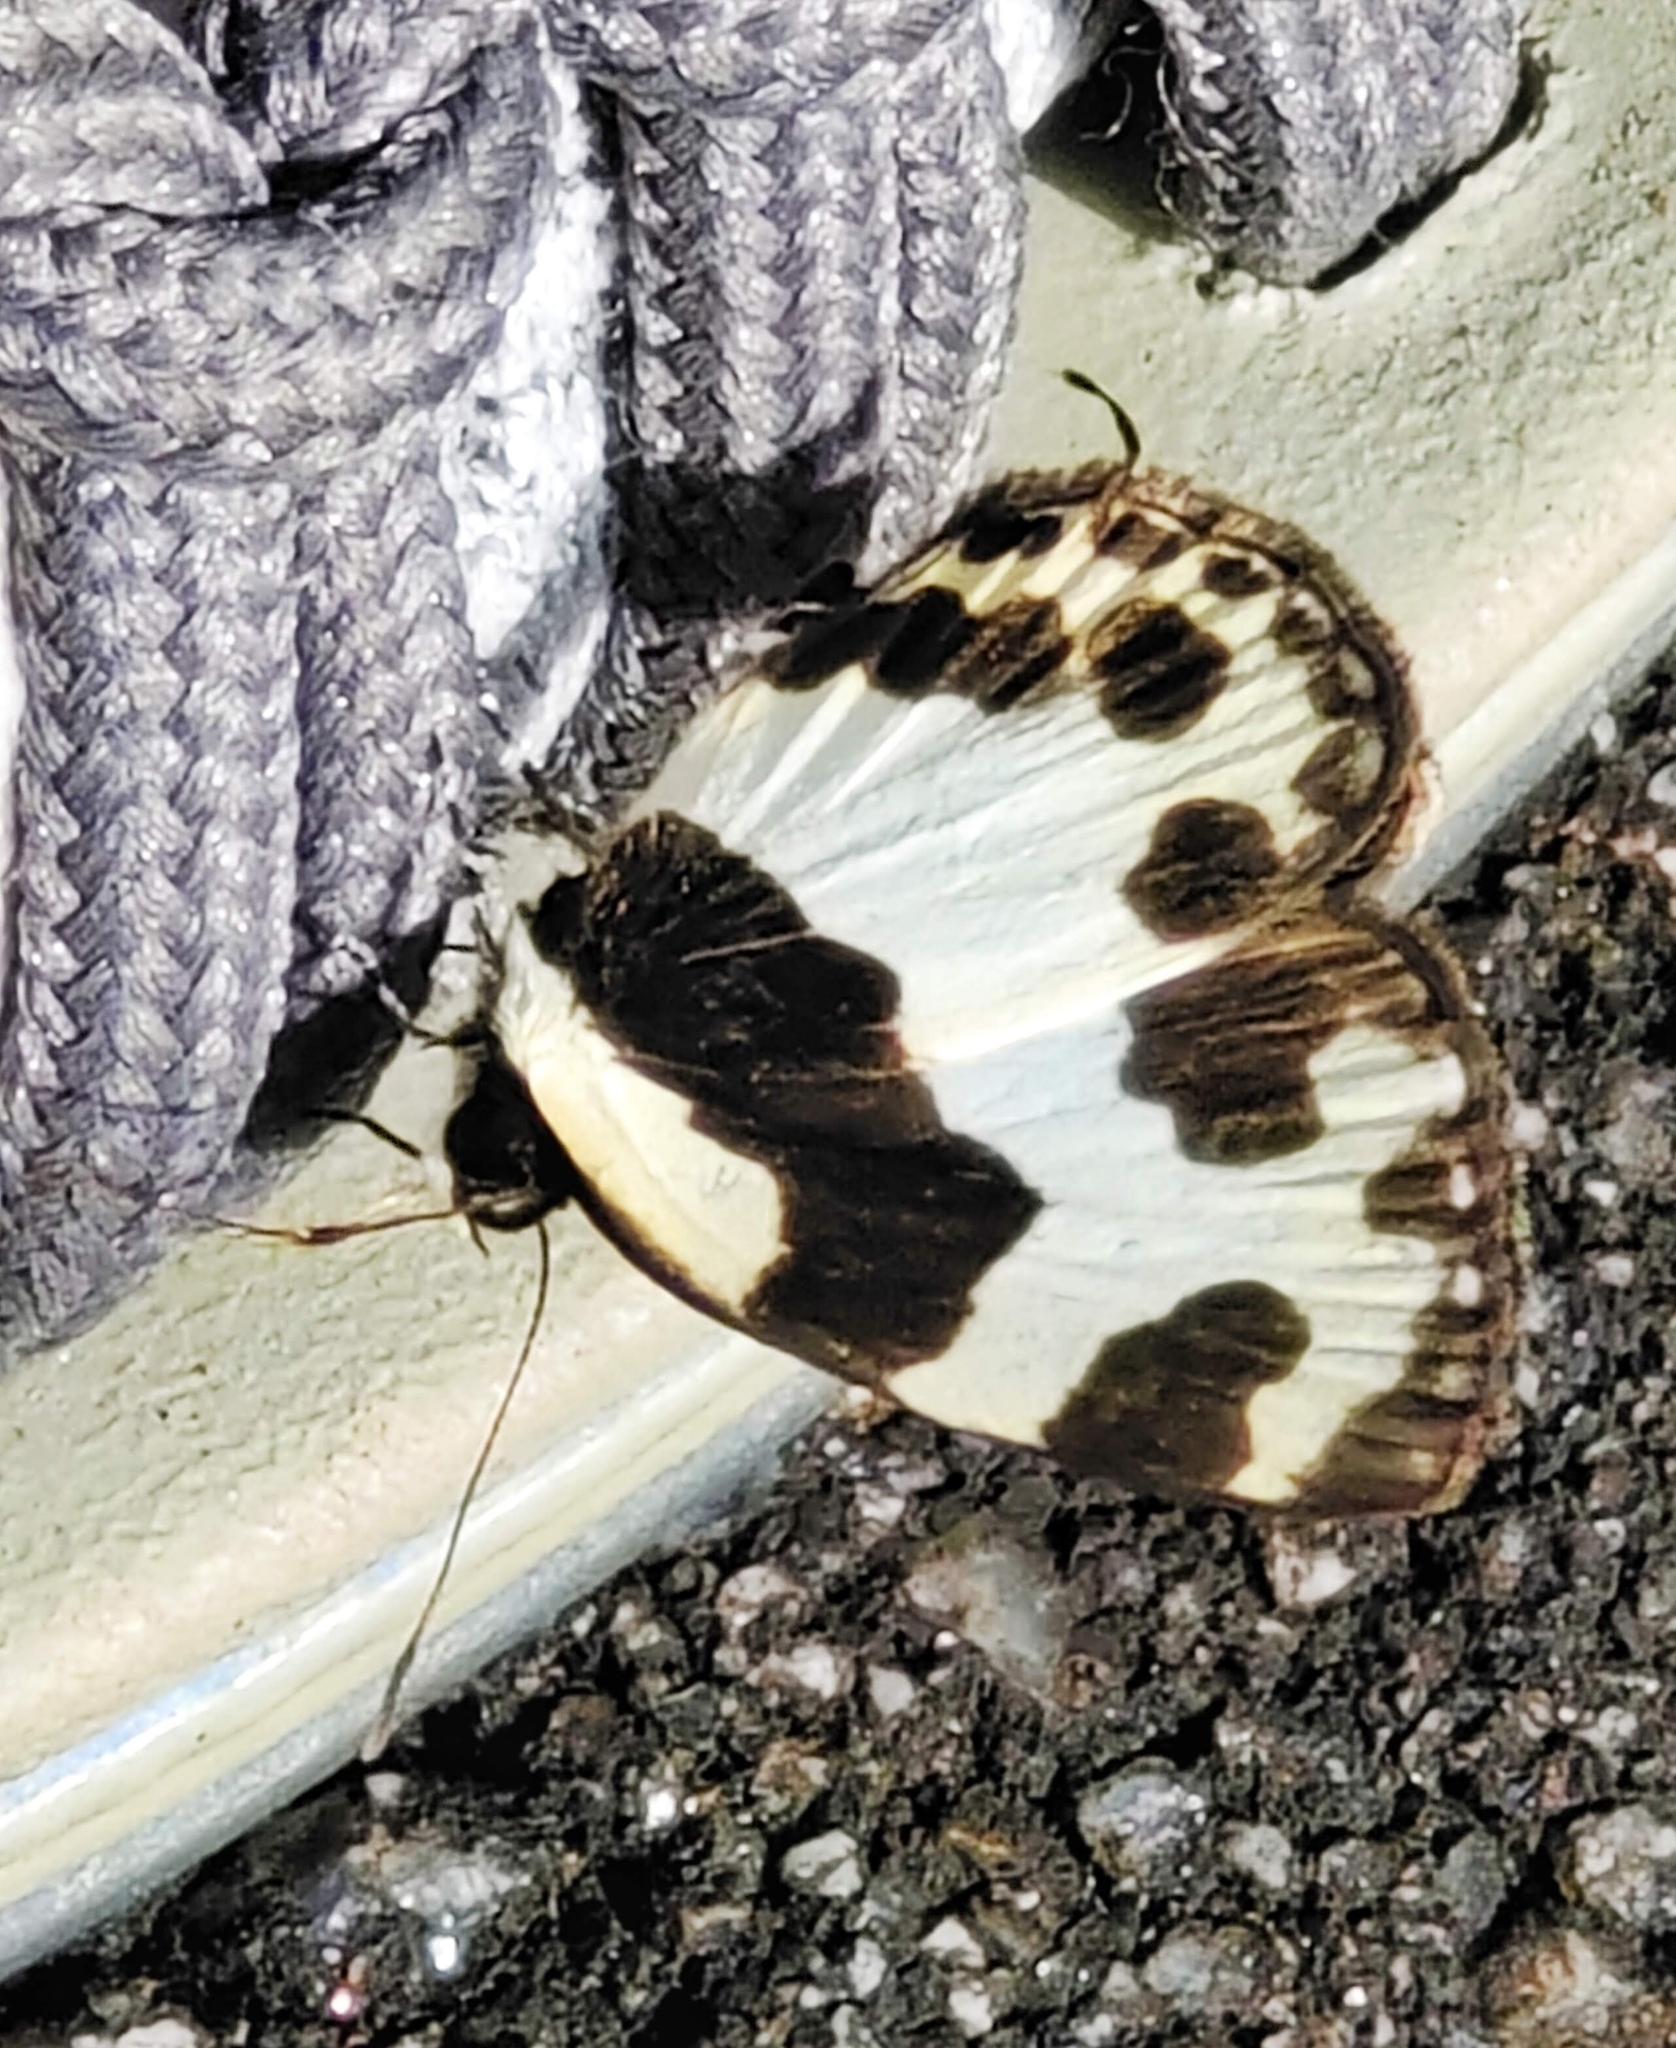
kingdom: Animalia
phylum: Arthropoda
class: Insecta
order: Lepidoptera
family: Lycaenidae
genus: Caleta
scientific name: Caleta elna
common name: Elbowed pierrot
